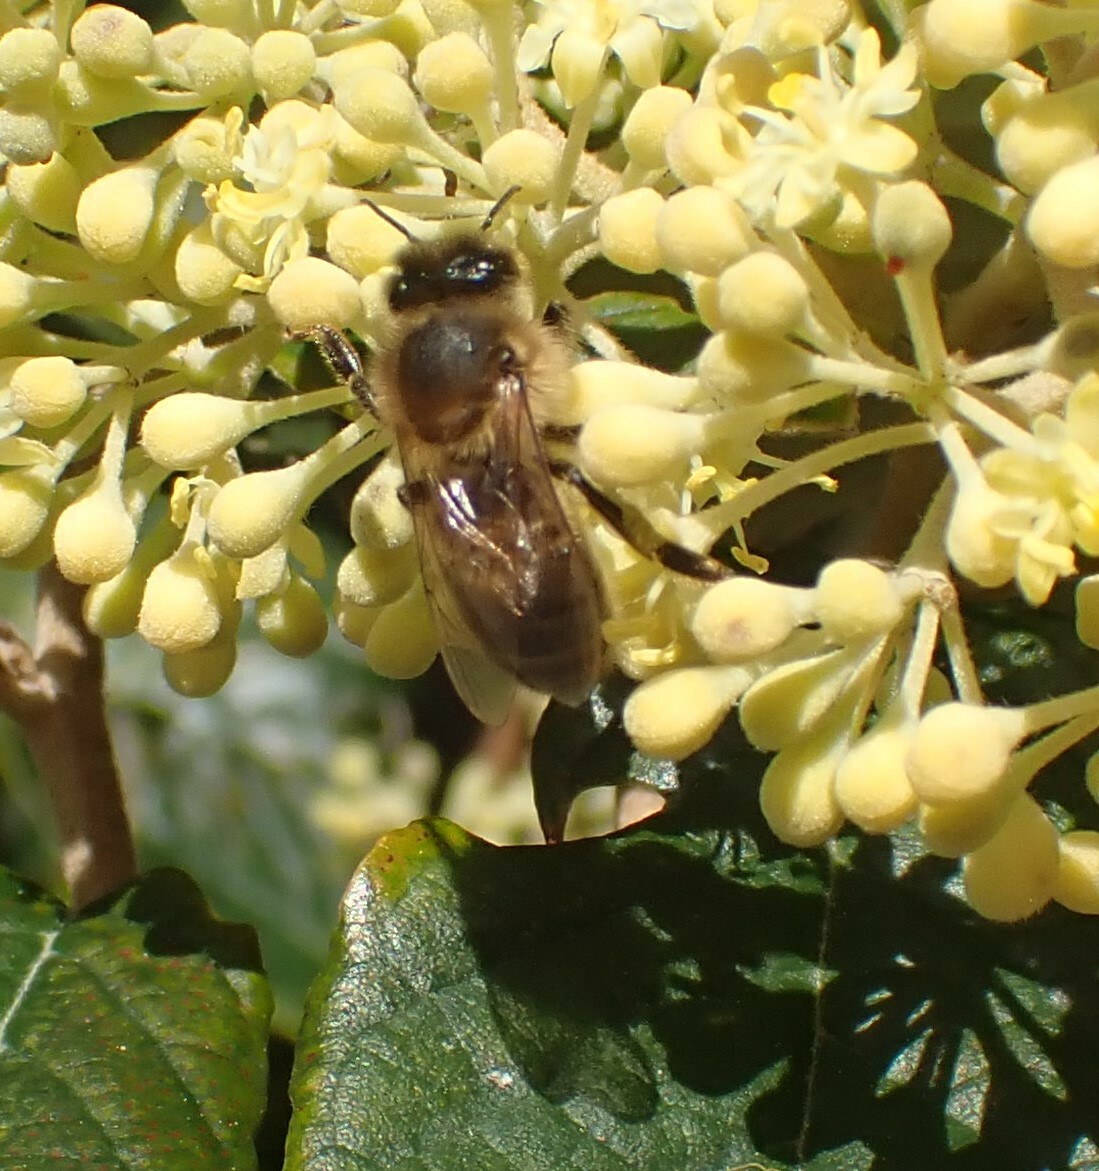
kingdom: Animalia
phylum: Arthropoda
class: Insecta
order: Hymenoptera
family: Apidae
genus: Apis
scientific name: Apis mellifera
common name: Honey bee
